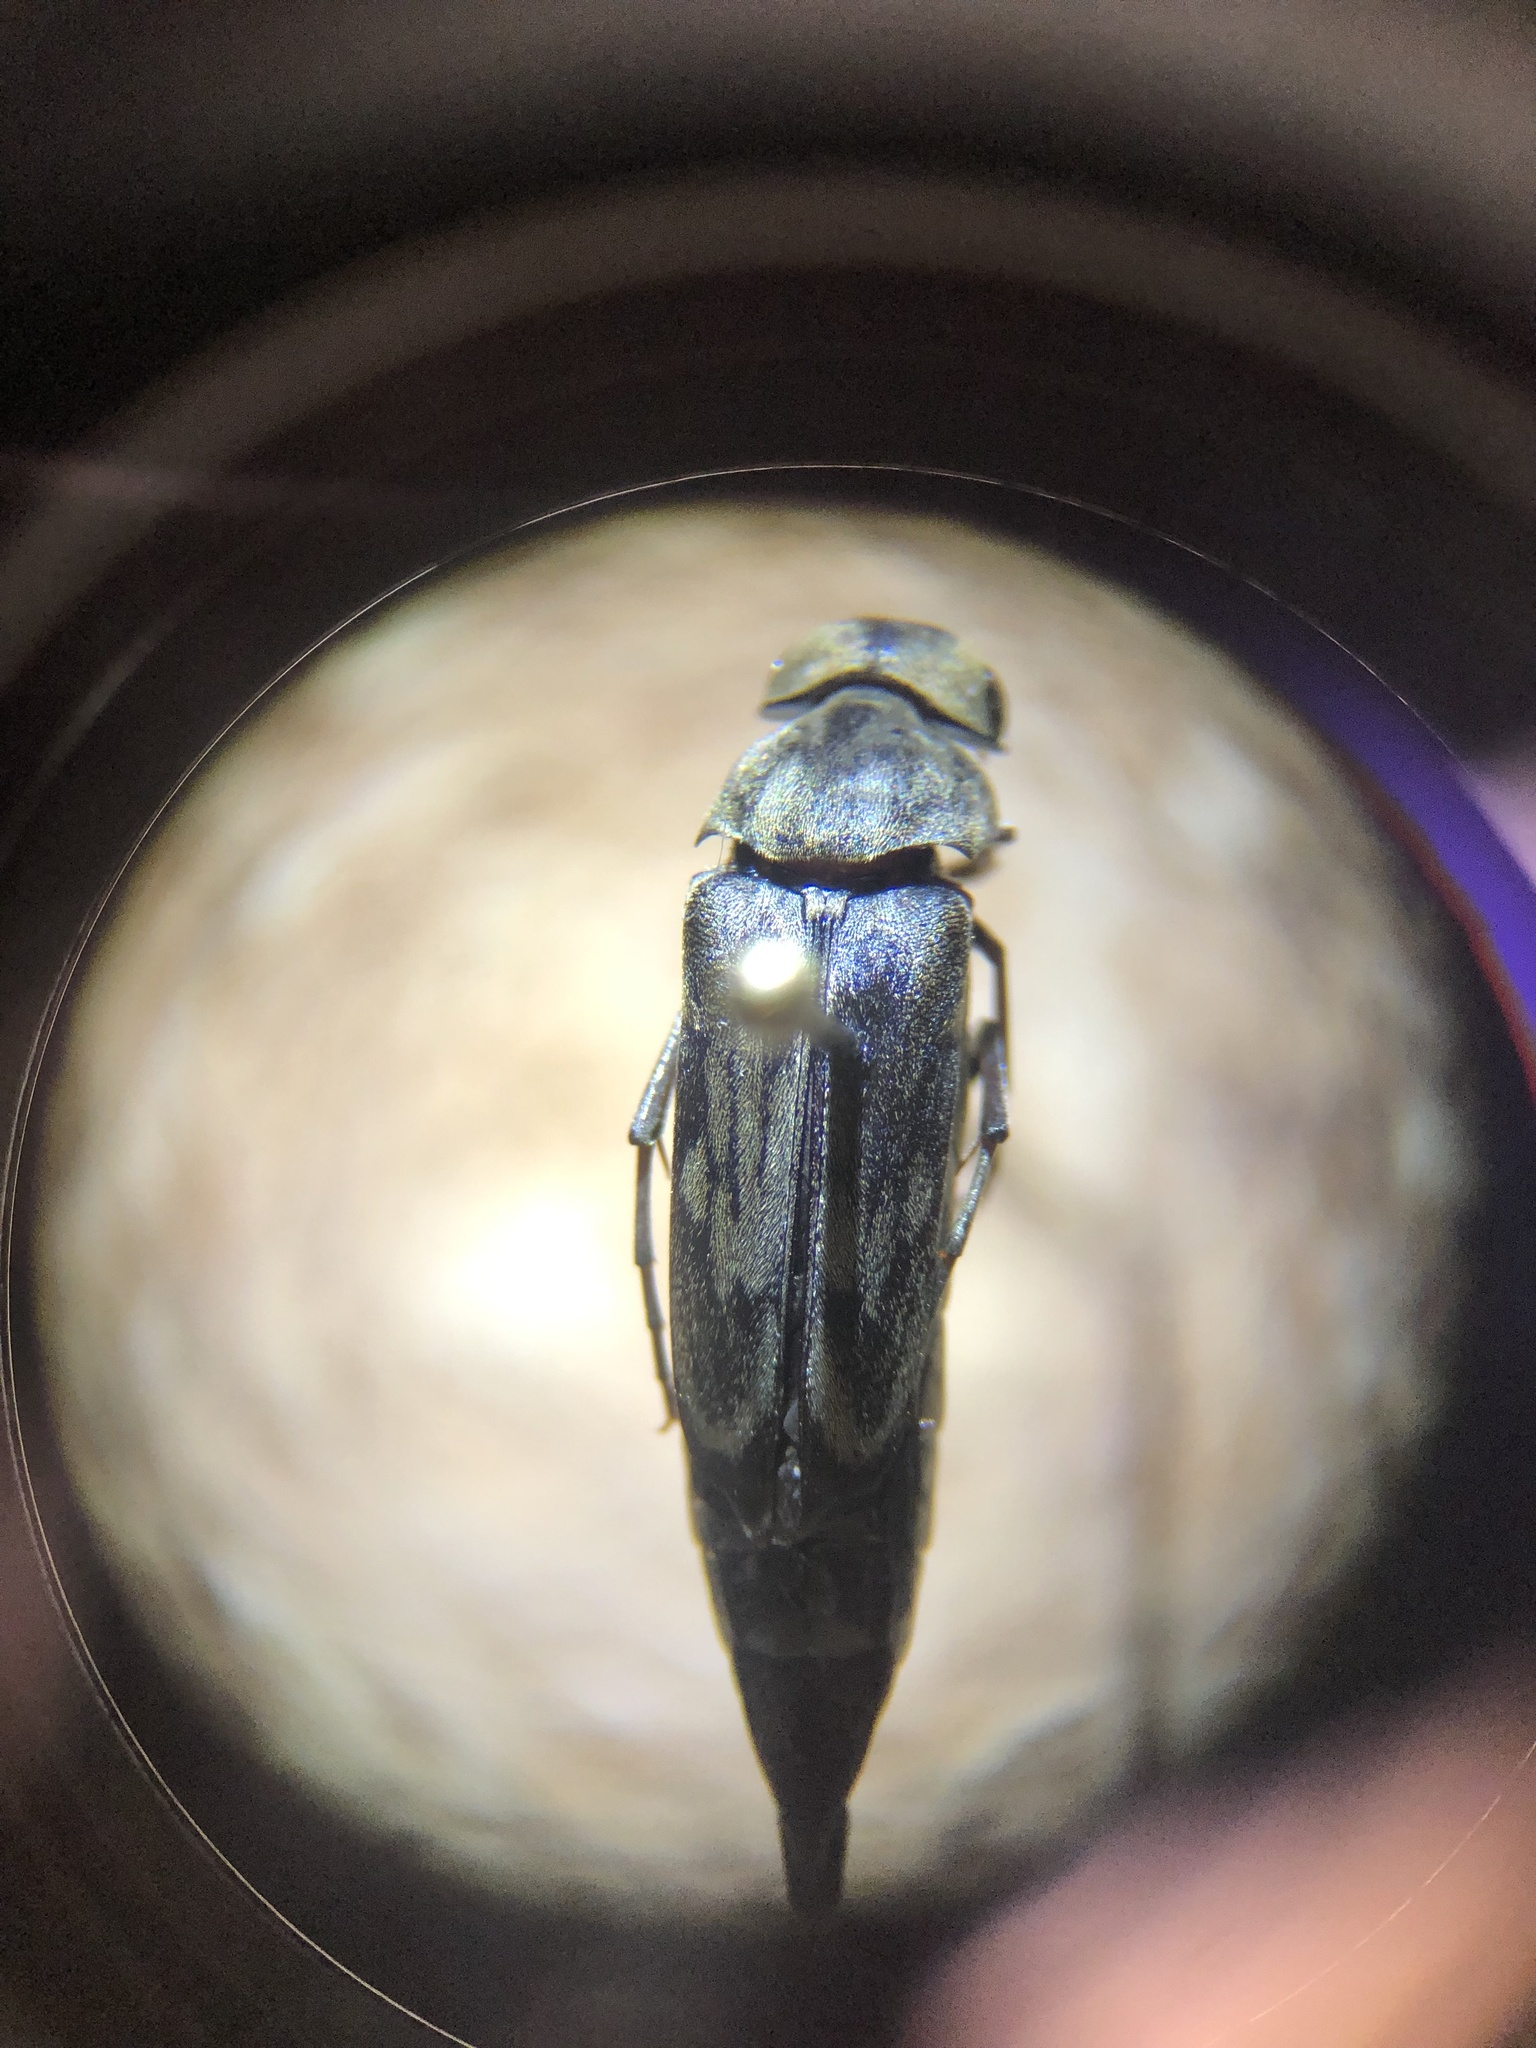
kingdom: Animalia
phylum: Arthropoda
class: Insecta
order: Coleoptera
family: Mordellidae
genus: Yakuhananomia
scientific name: Yakuhananomia bidentata
